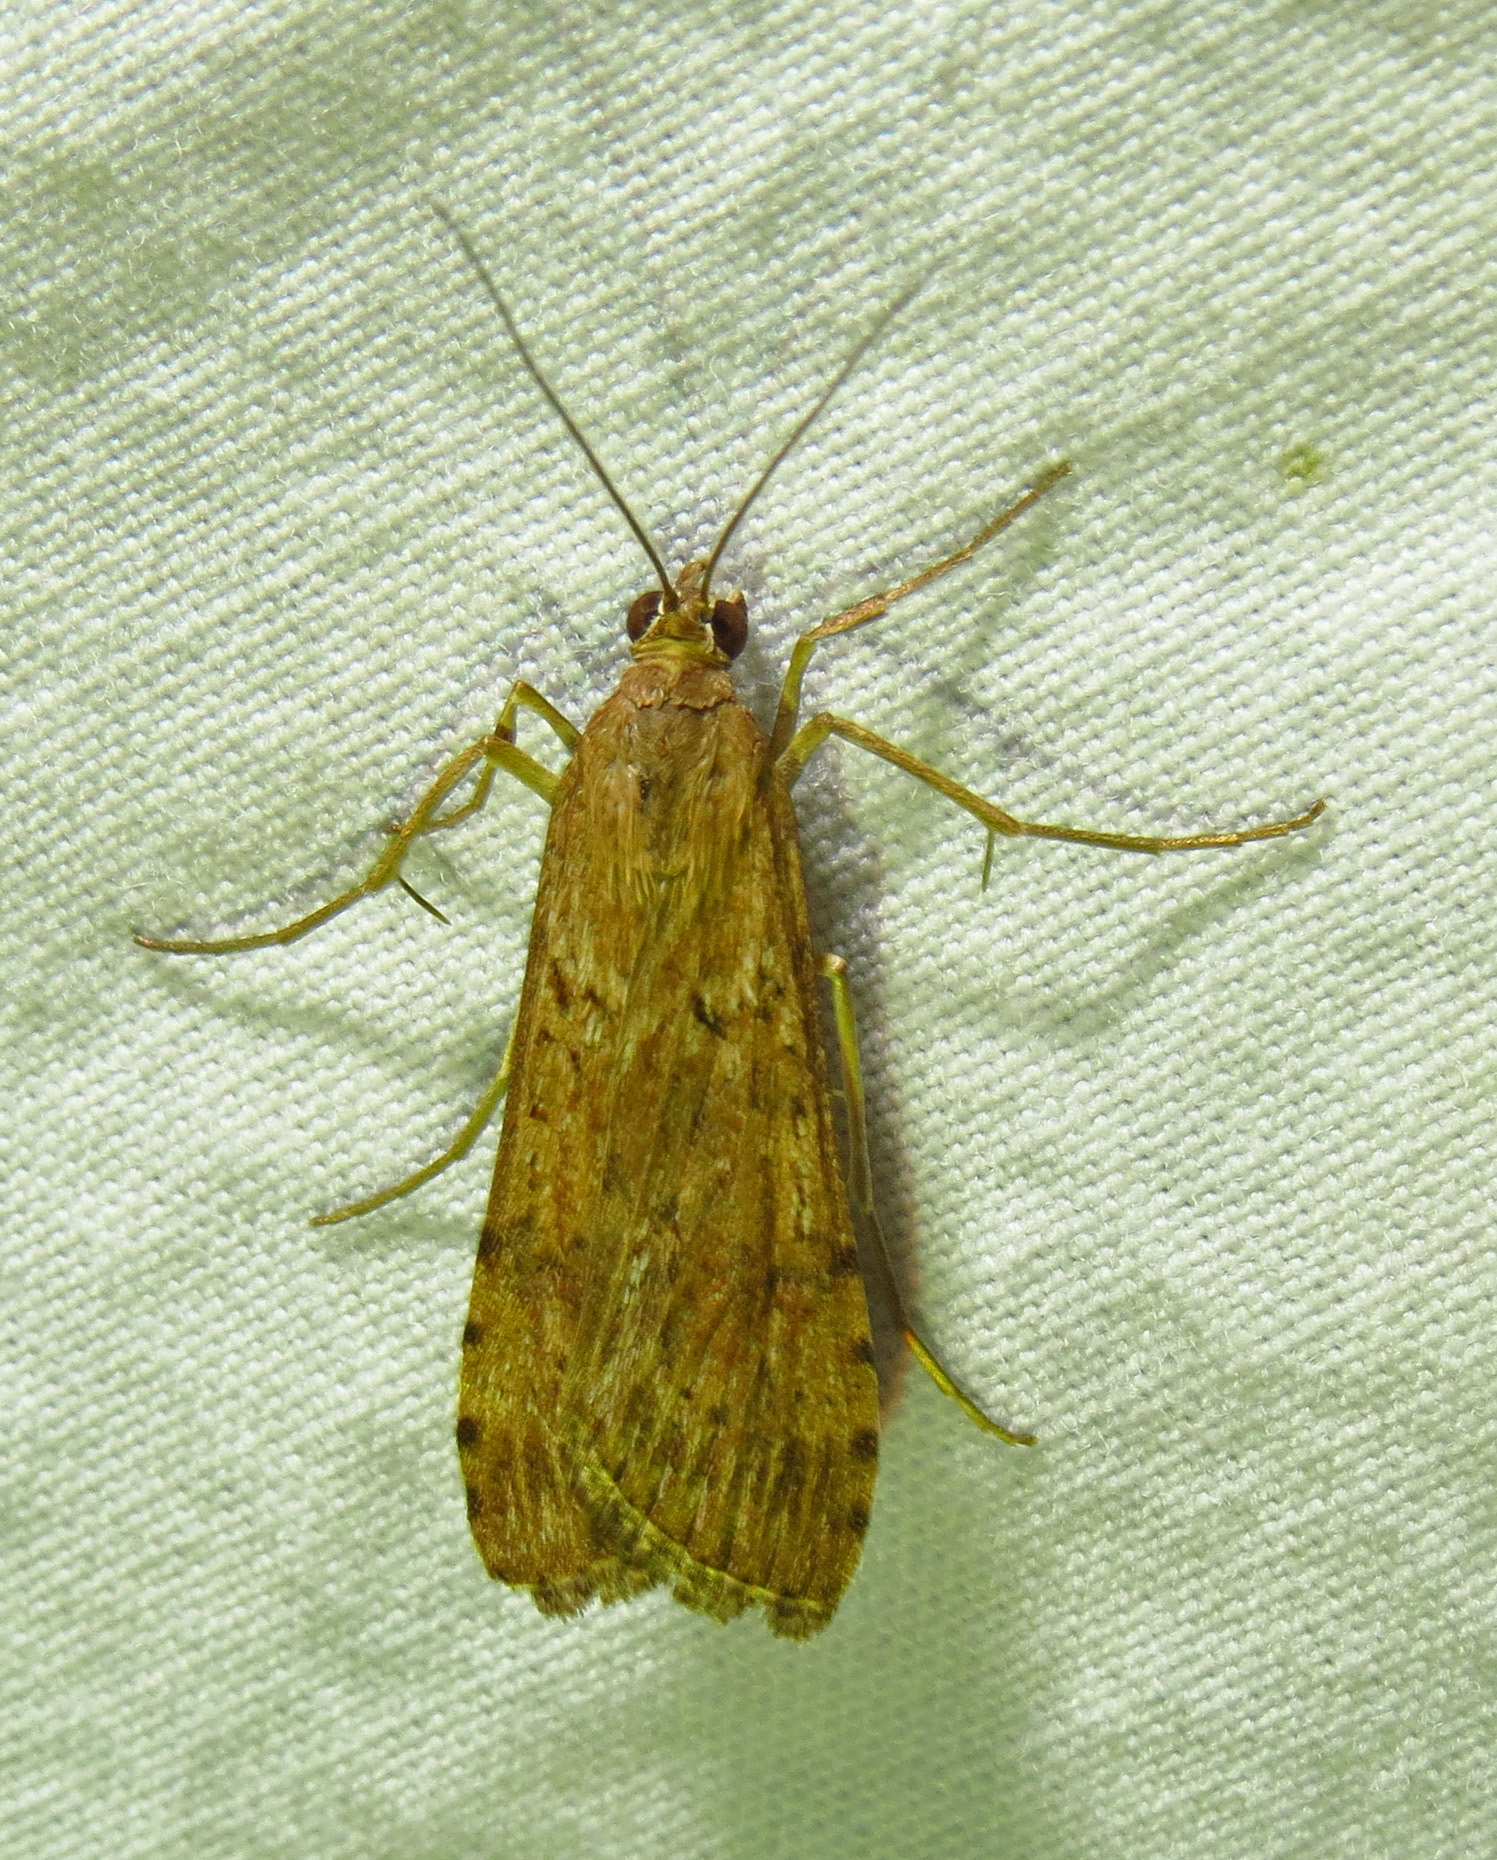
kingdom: Animalia
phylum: Arthropoda
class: Insecta
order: Lepidoptera
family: Crambidae
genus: Nomophila
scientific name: Nomophila nearctica
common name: American rush veneer
